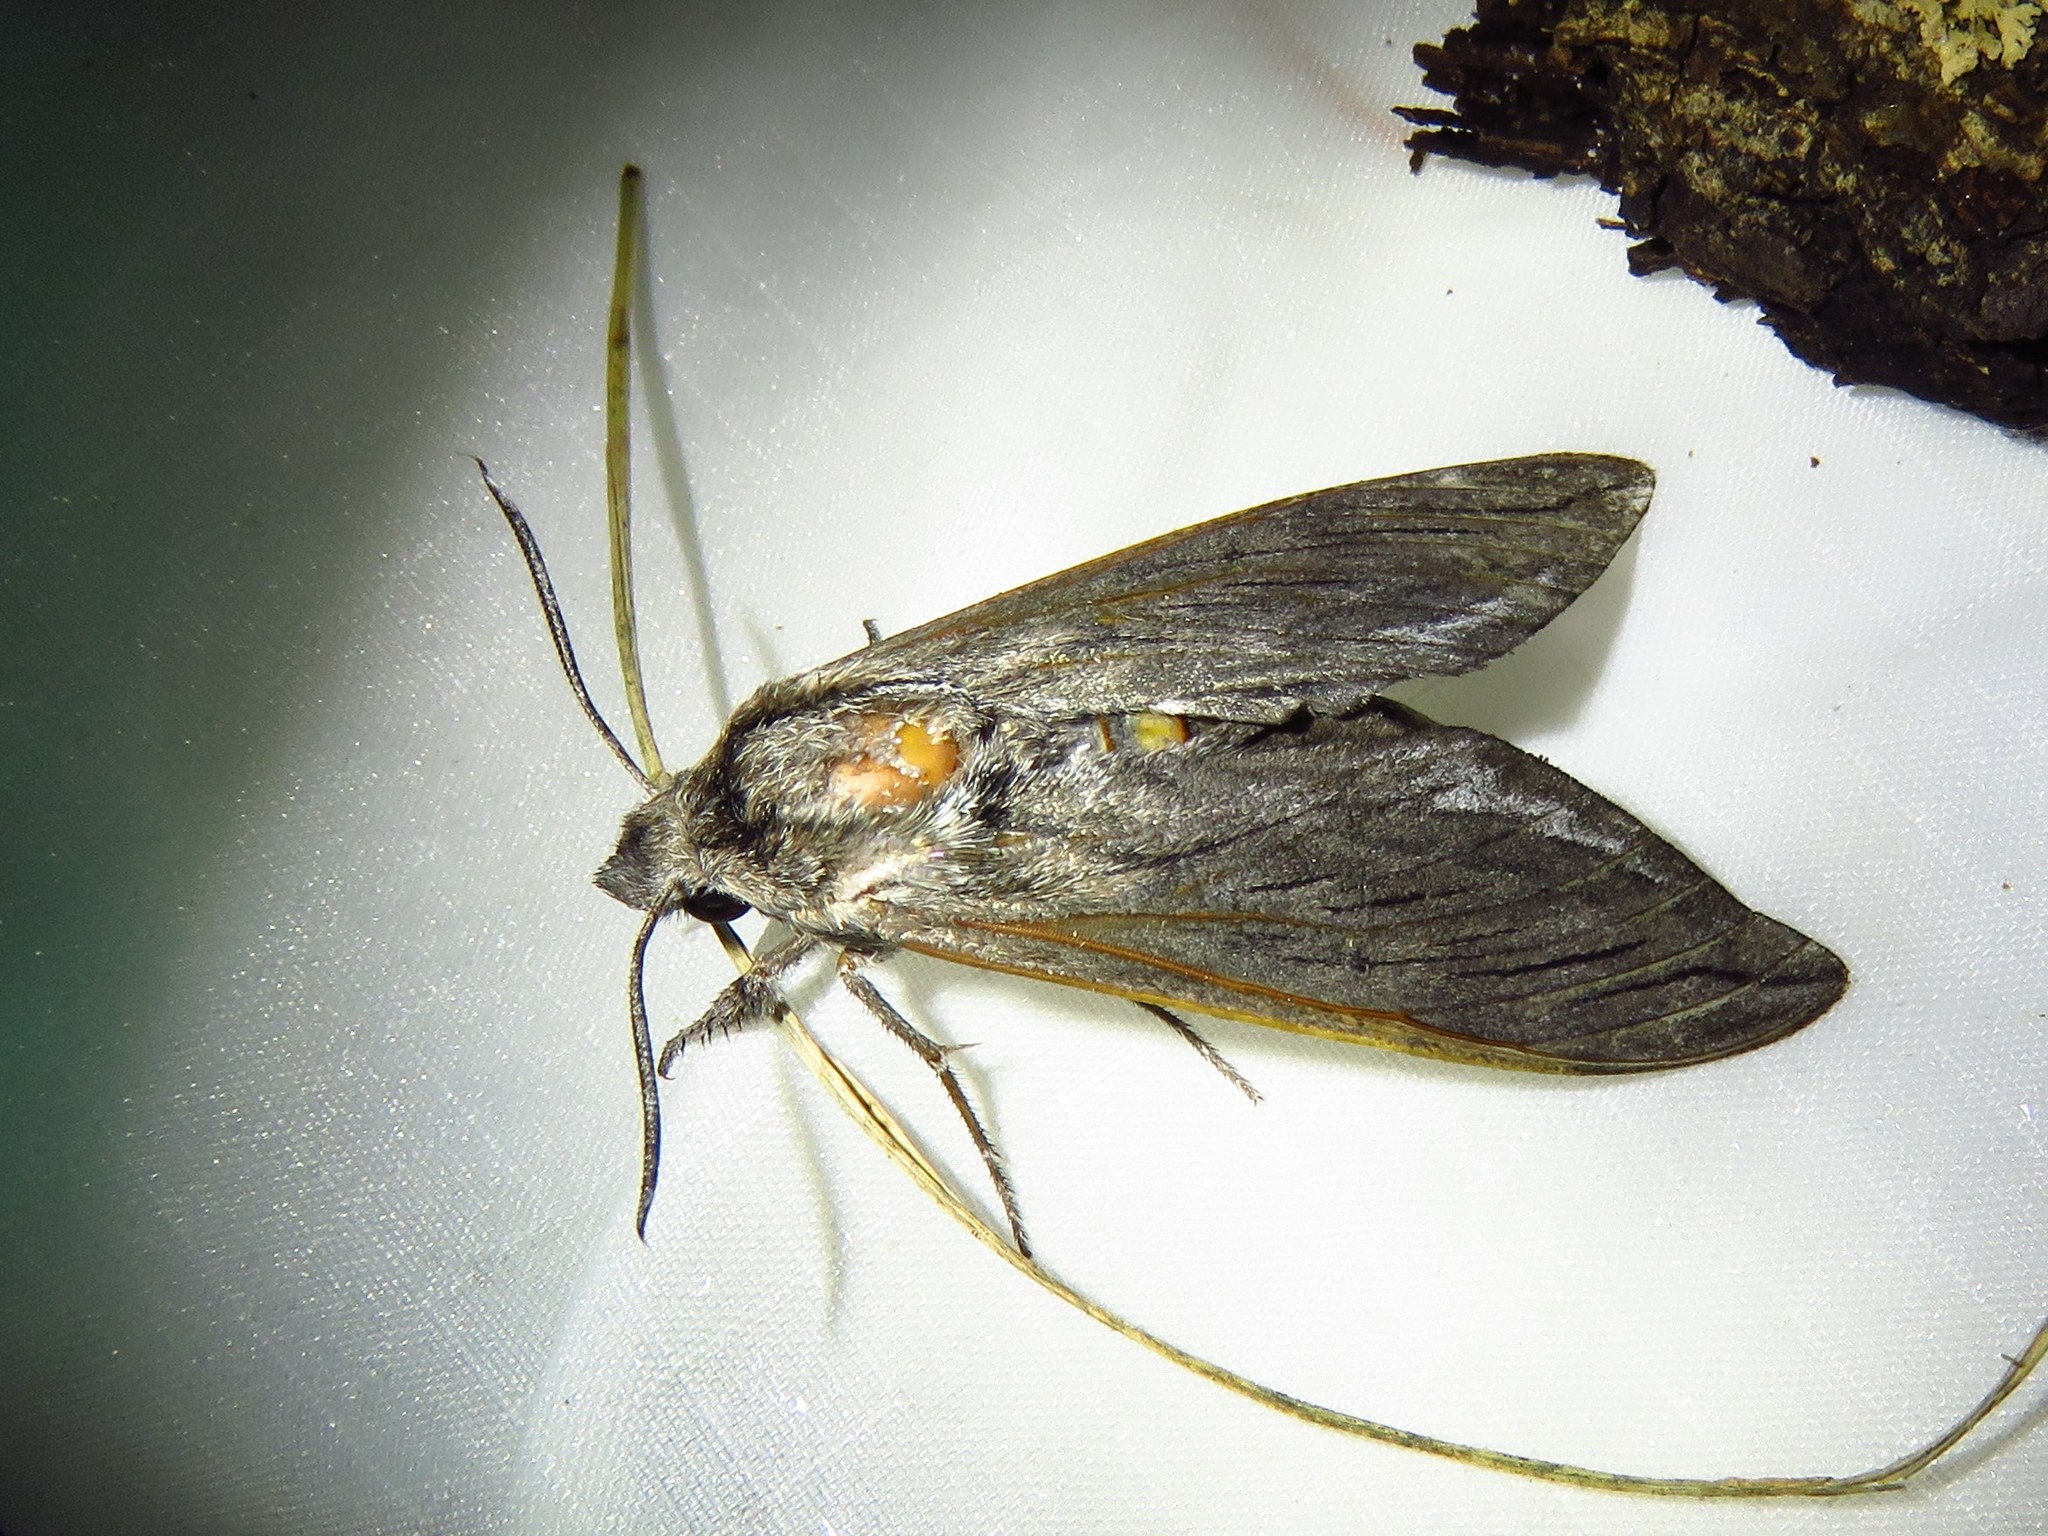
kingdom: Animalia
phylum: Arthropoda
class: Insecta
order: Lepidoptera
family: Sphingidae
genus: Sphinx
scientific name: Sphinx libocedrus
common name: Incense cedar sphinx
